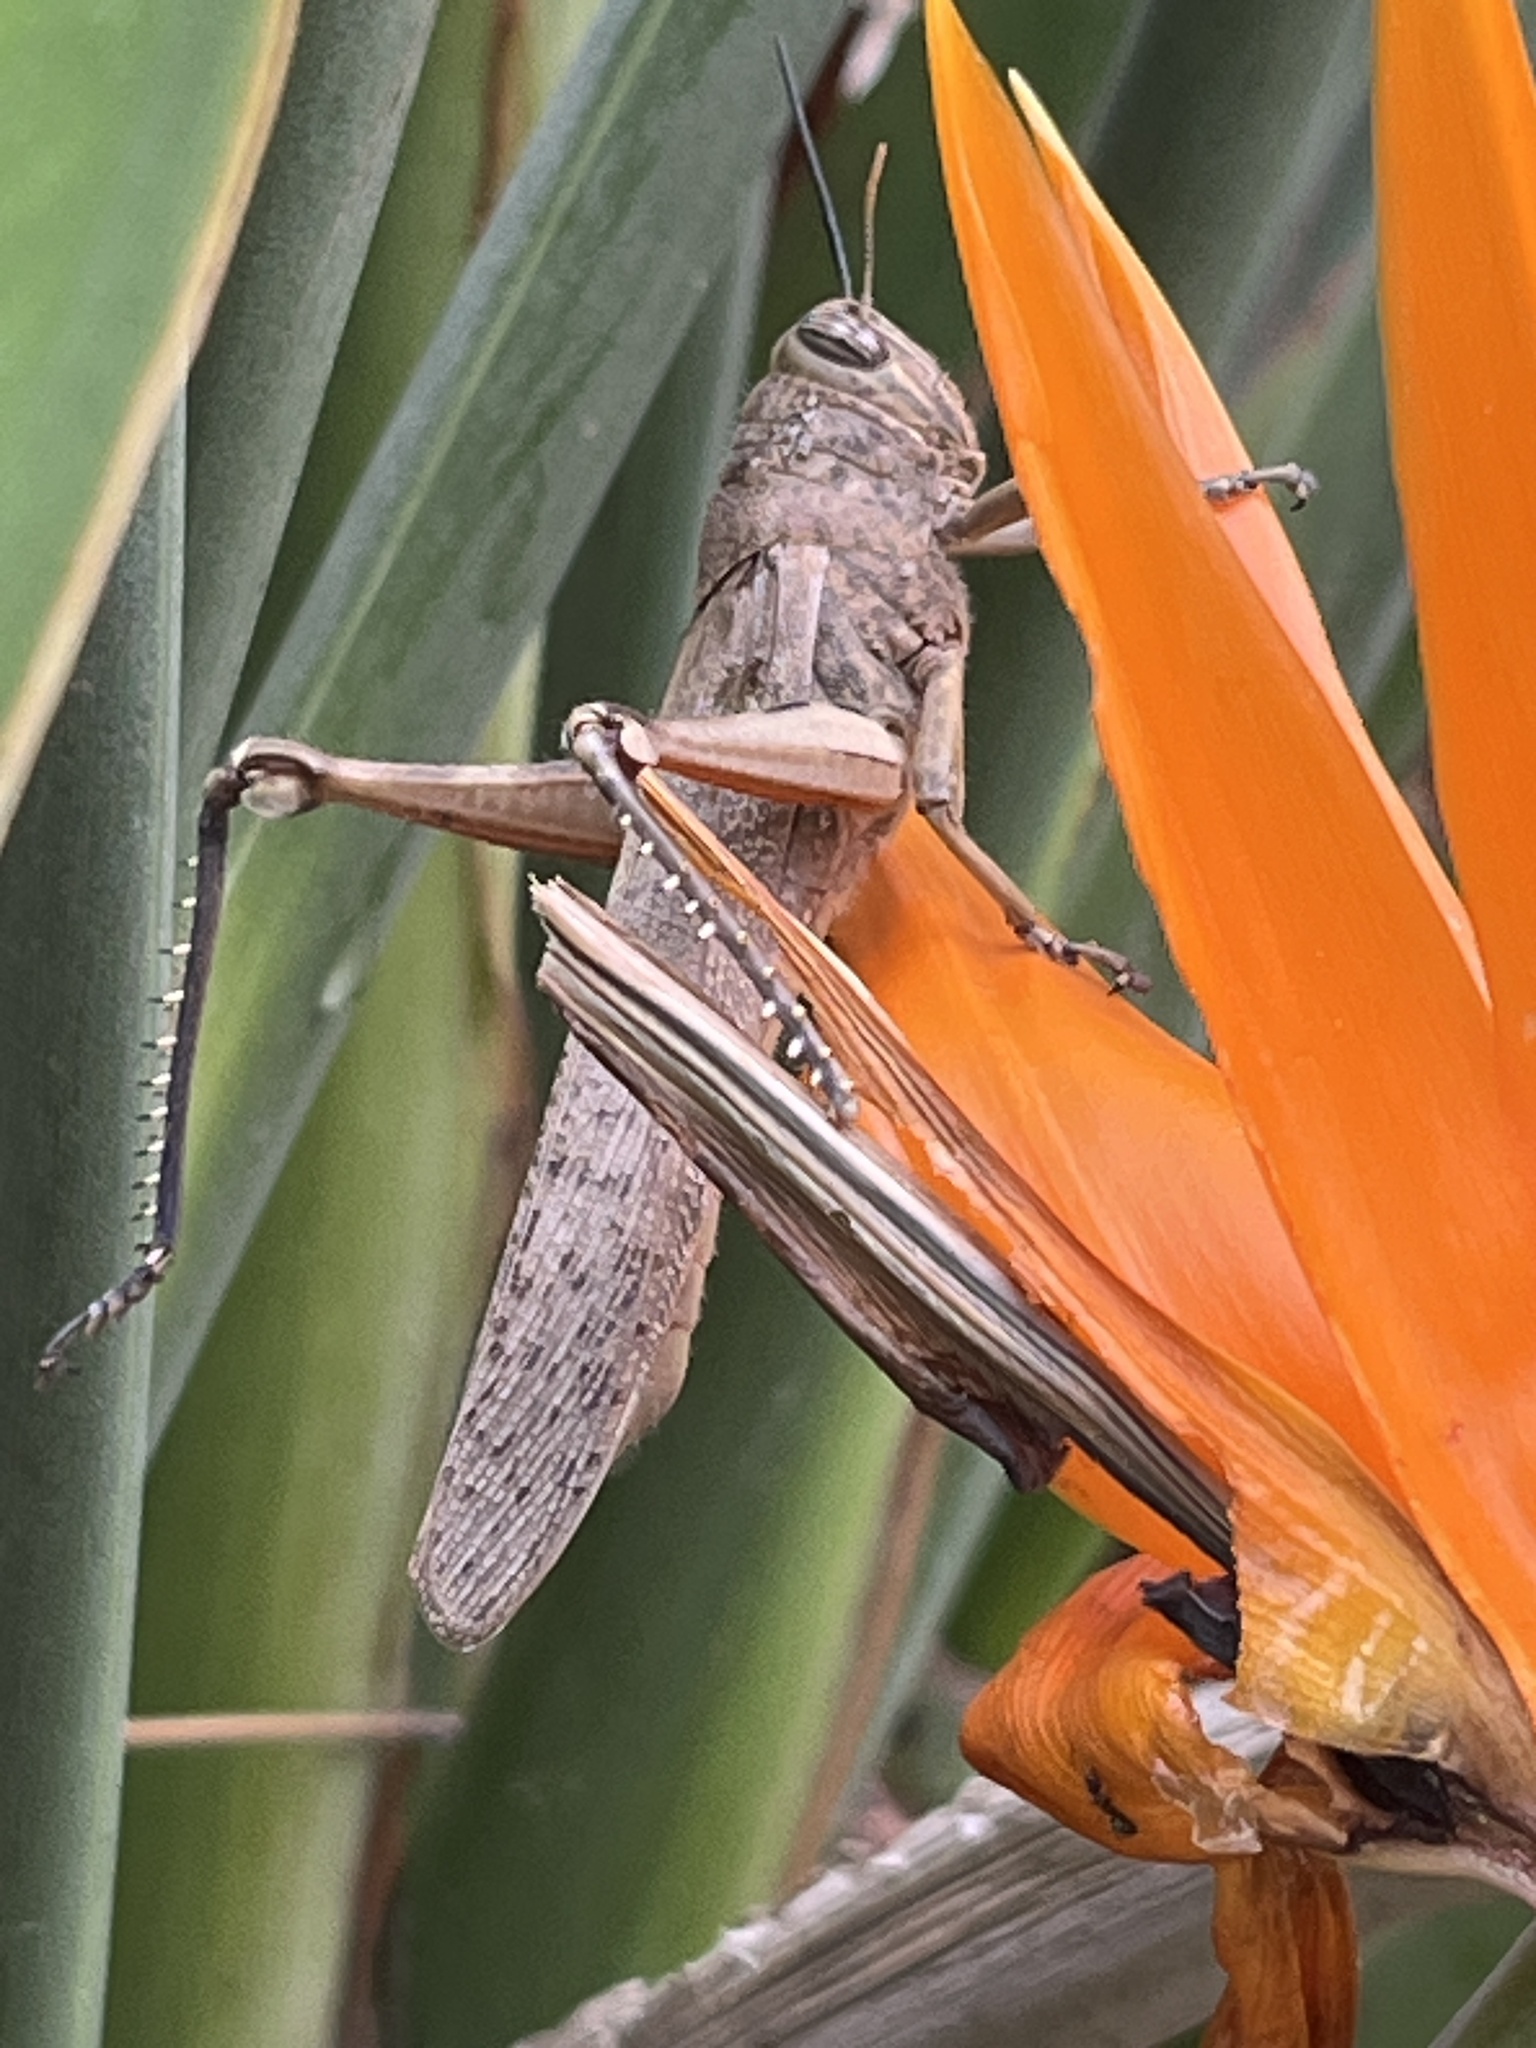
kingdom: Animalia
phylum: Arthropoda
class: Insecta
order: Orthoptera
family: Acrididae
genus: Anacridium
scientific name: Anacridium aegyptium
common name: Egyptian grasshopper
